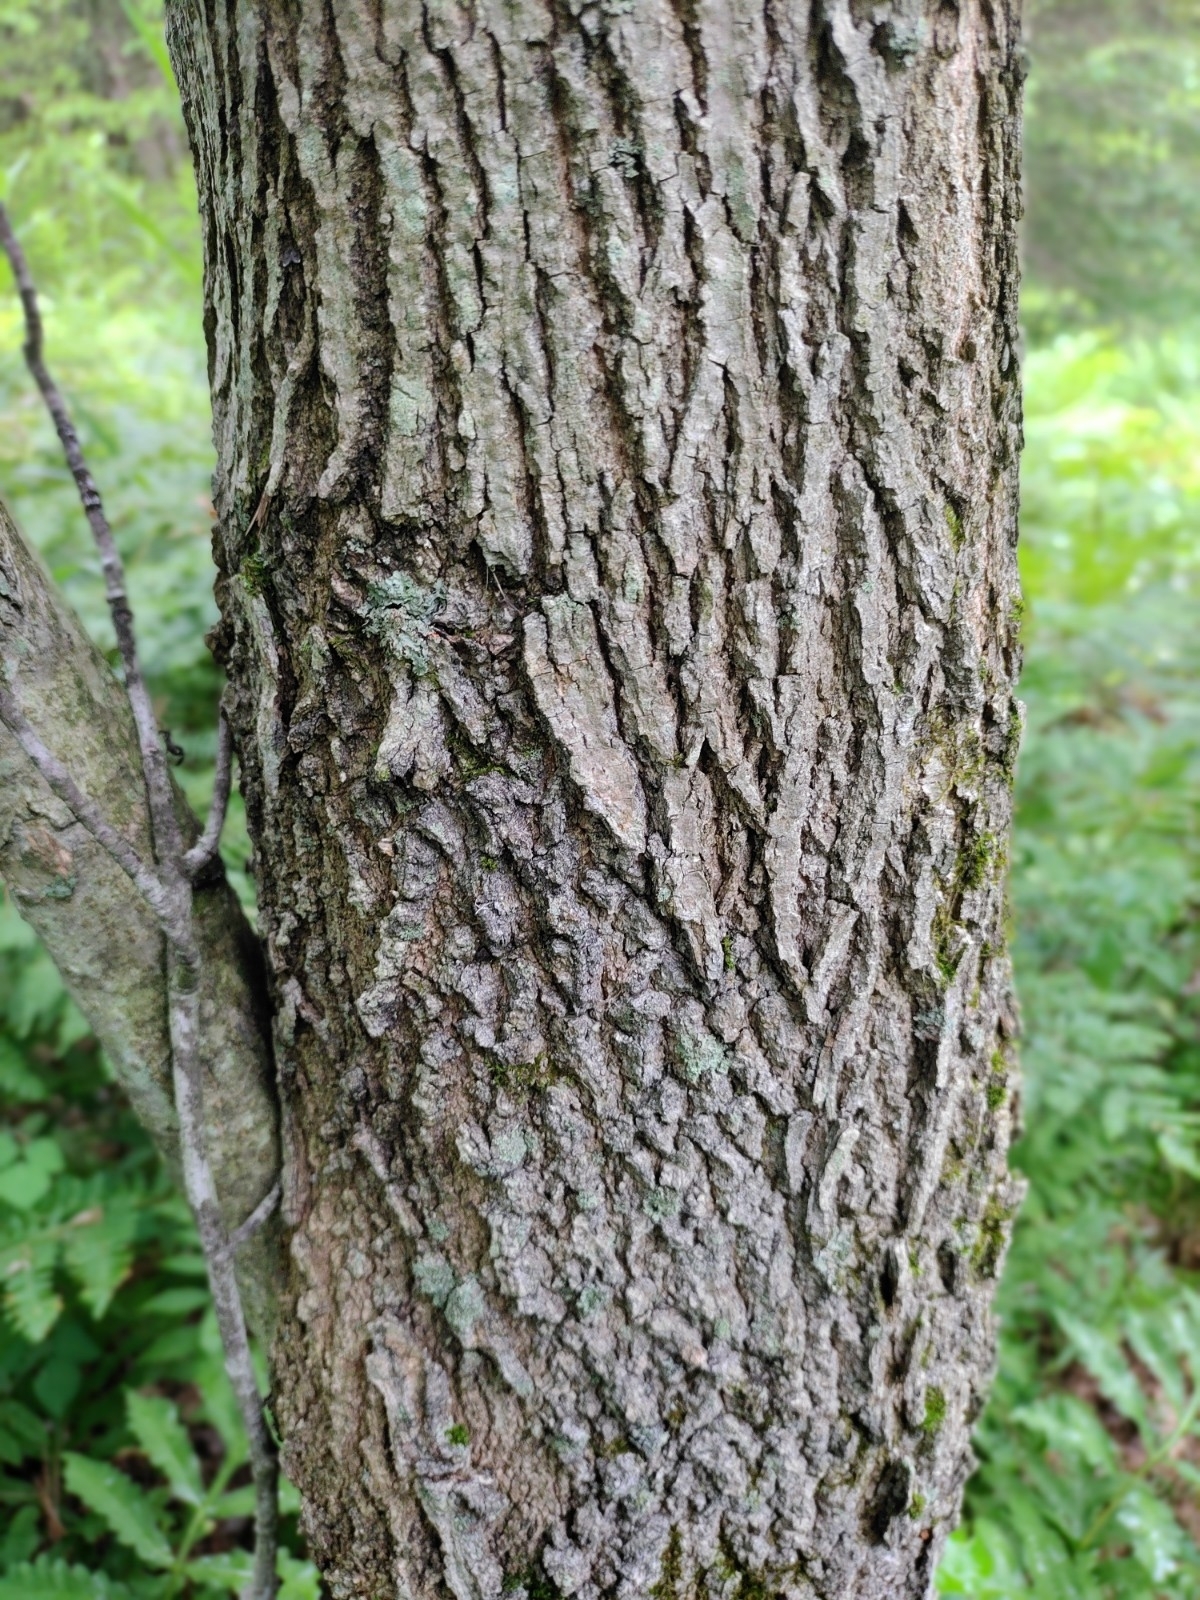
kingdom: Plantae
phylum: Tracheophyta
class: Magnoliopsida
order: Lamiales
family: Oleaceae
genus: Fraxinus
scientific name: Fraxinus americana
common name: White ash
